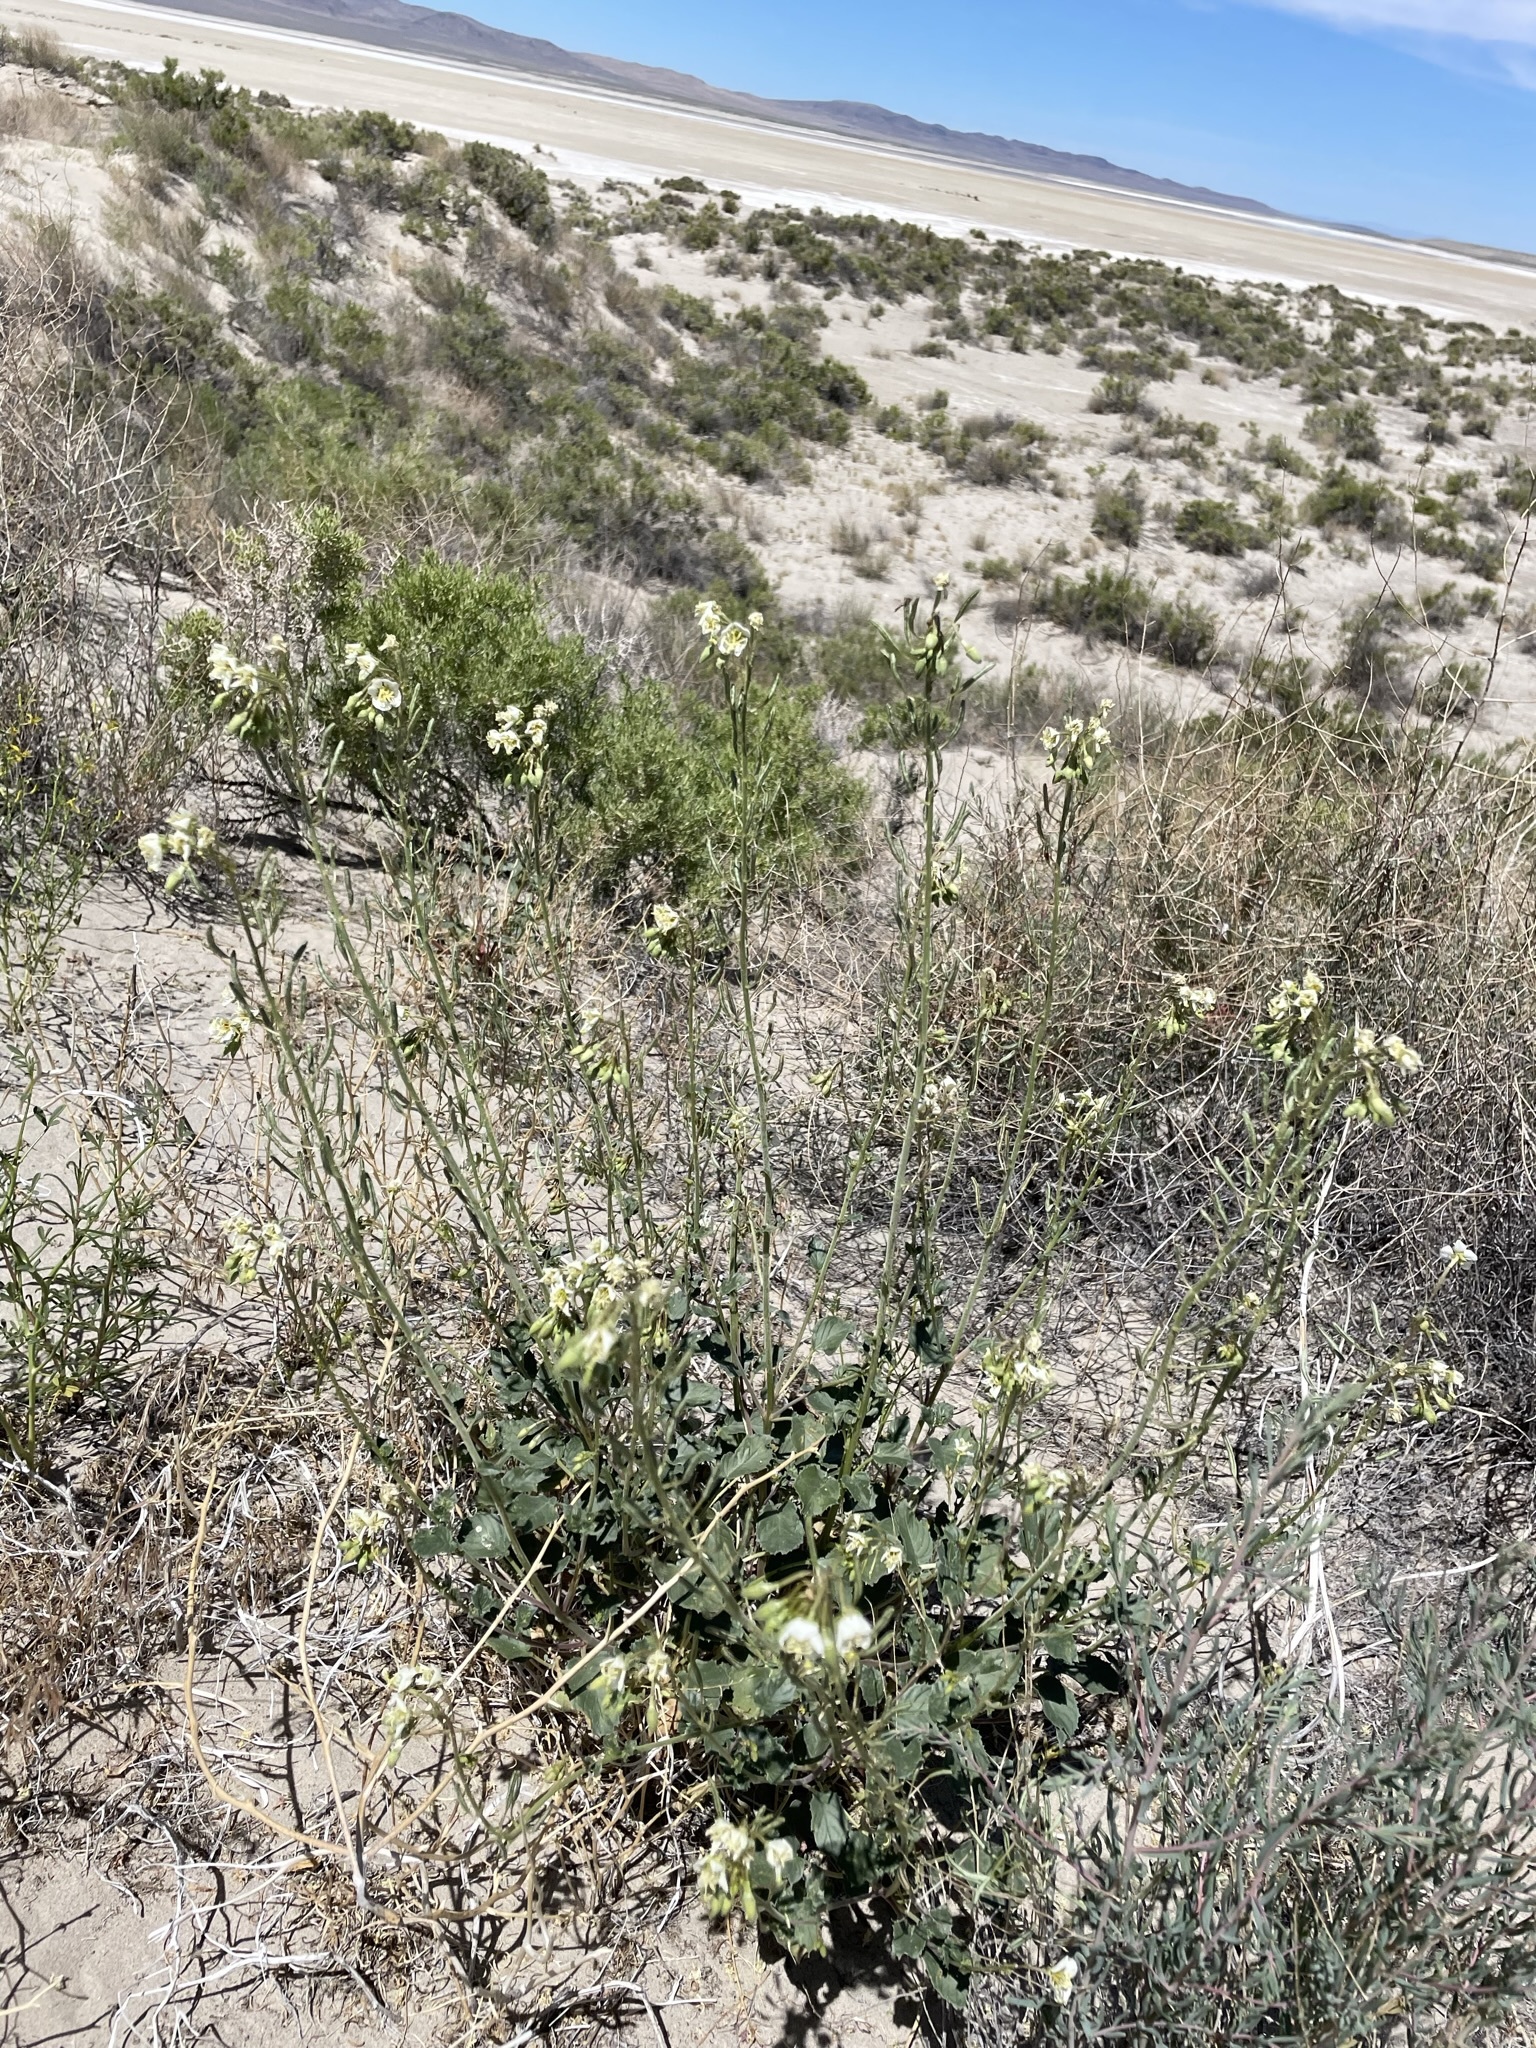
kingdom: Plantae
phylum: Tracheophyta
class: Magnoliopsida
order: Myrtales
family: Onagraceae
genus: Chylismia
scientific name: Chylismia claviformis
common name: Browneyes
